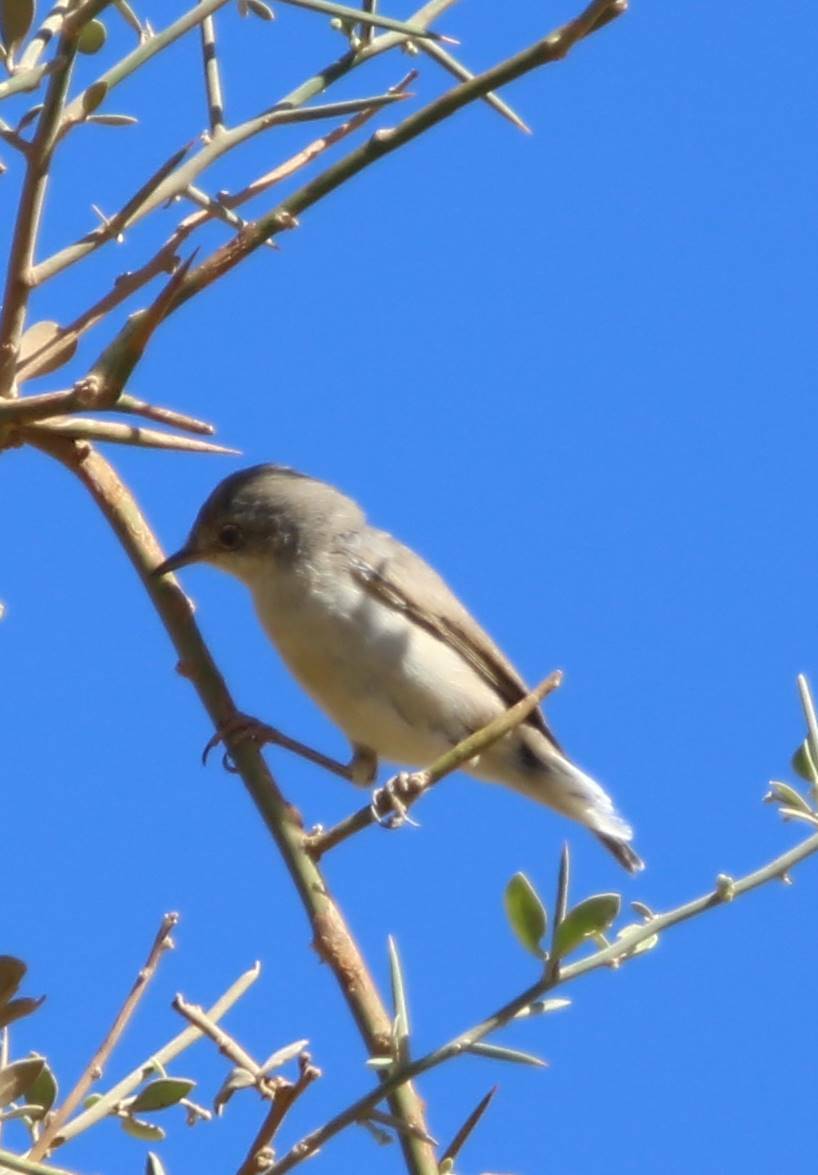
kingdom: Animalia
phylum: Chordata
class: Aves
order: Passeriformes
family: Sylviidae
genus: Sylvia
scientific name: Sylvia communis
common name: Common whitethroat
